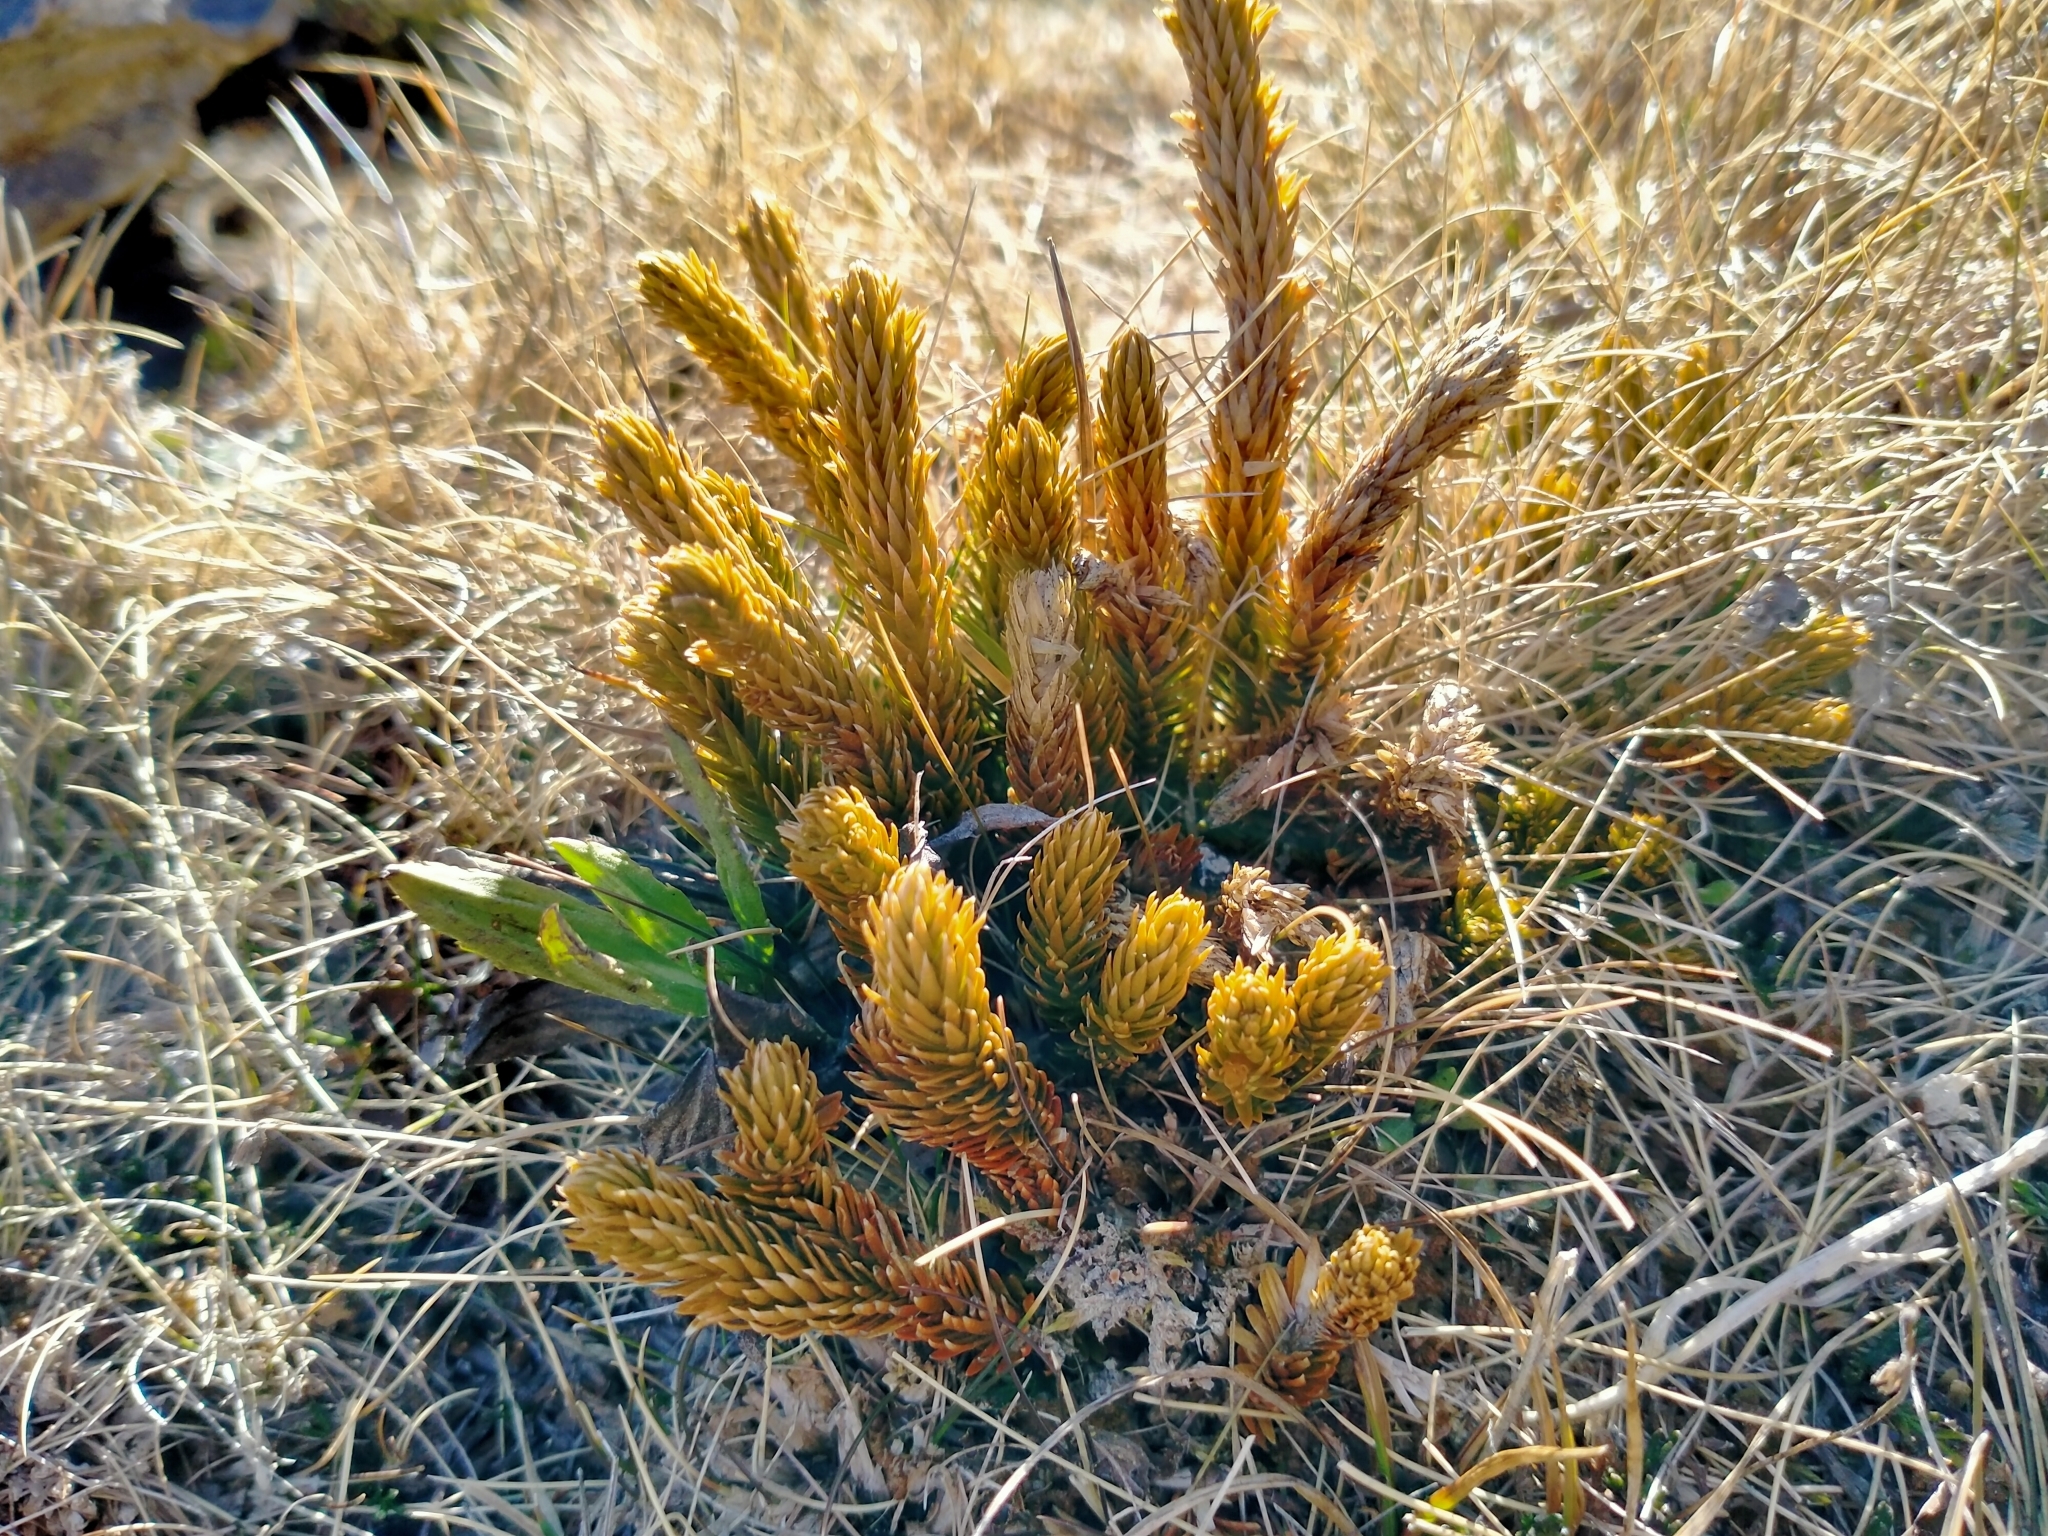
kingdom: Plantae
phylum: Tracheophyta
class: Lycopodiopsida
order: Lycopodiales
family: Lycopodiaceae
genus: Huperzia
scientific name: Huperzia australiana
